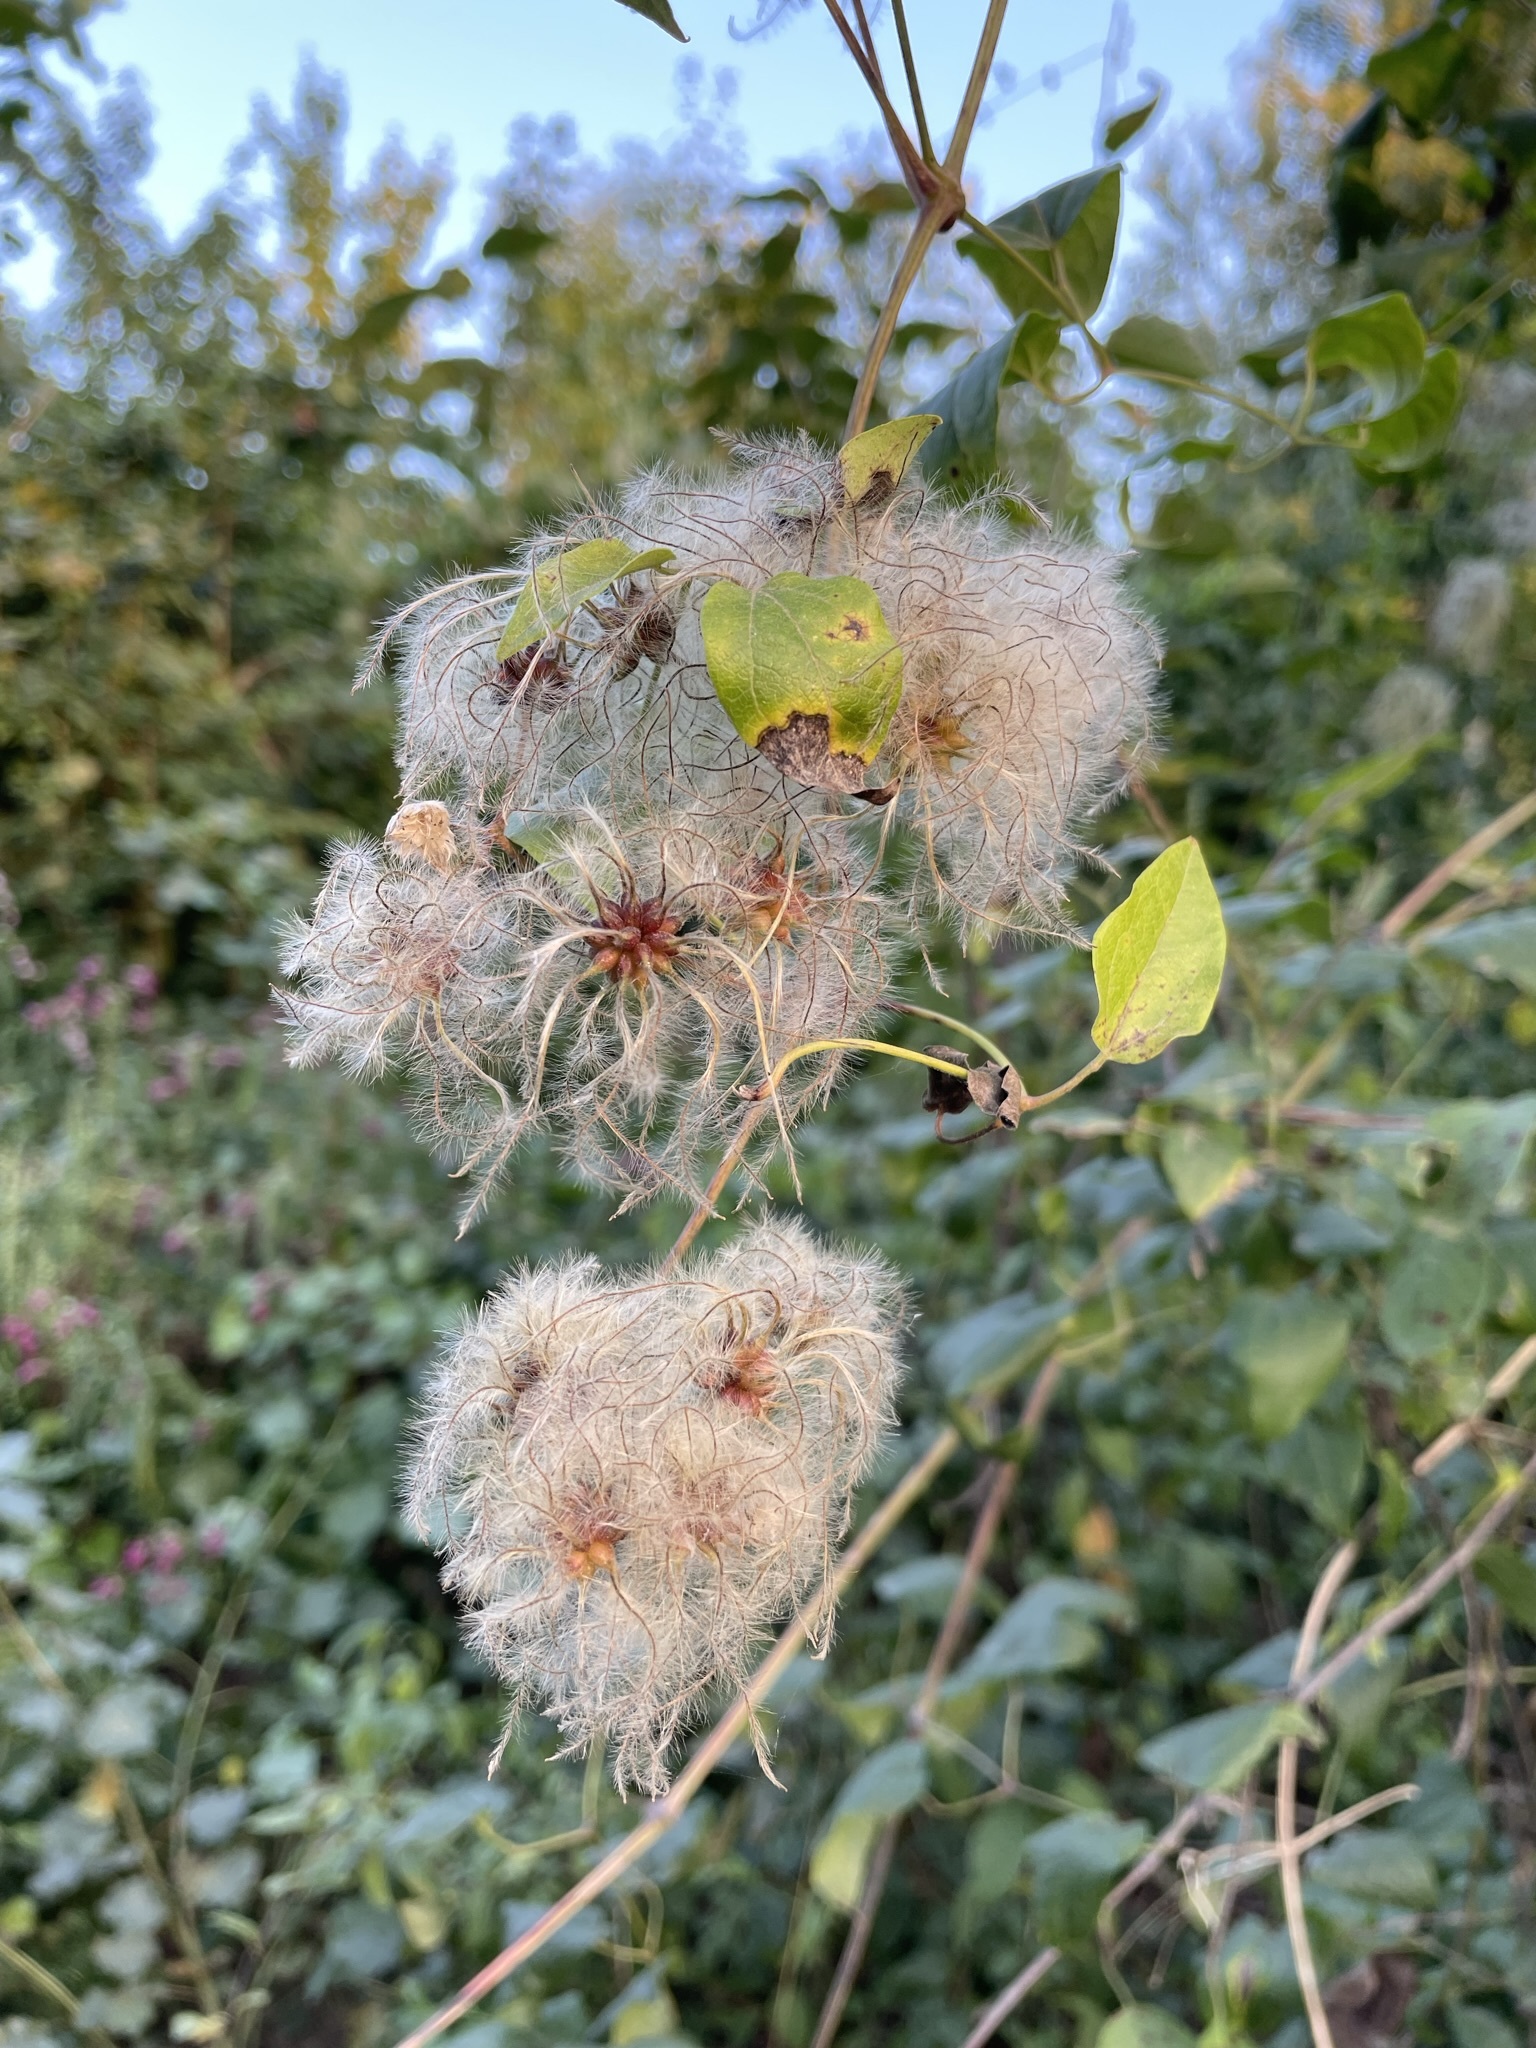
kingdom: Plantae
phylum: Tracheophyta
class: Magnoliopsida
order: Ranunculales
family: Ranunculaceae
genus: Clematis
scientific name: Clematis vitalba
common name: Evergreen clematis
